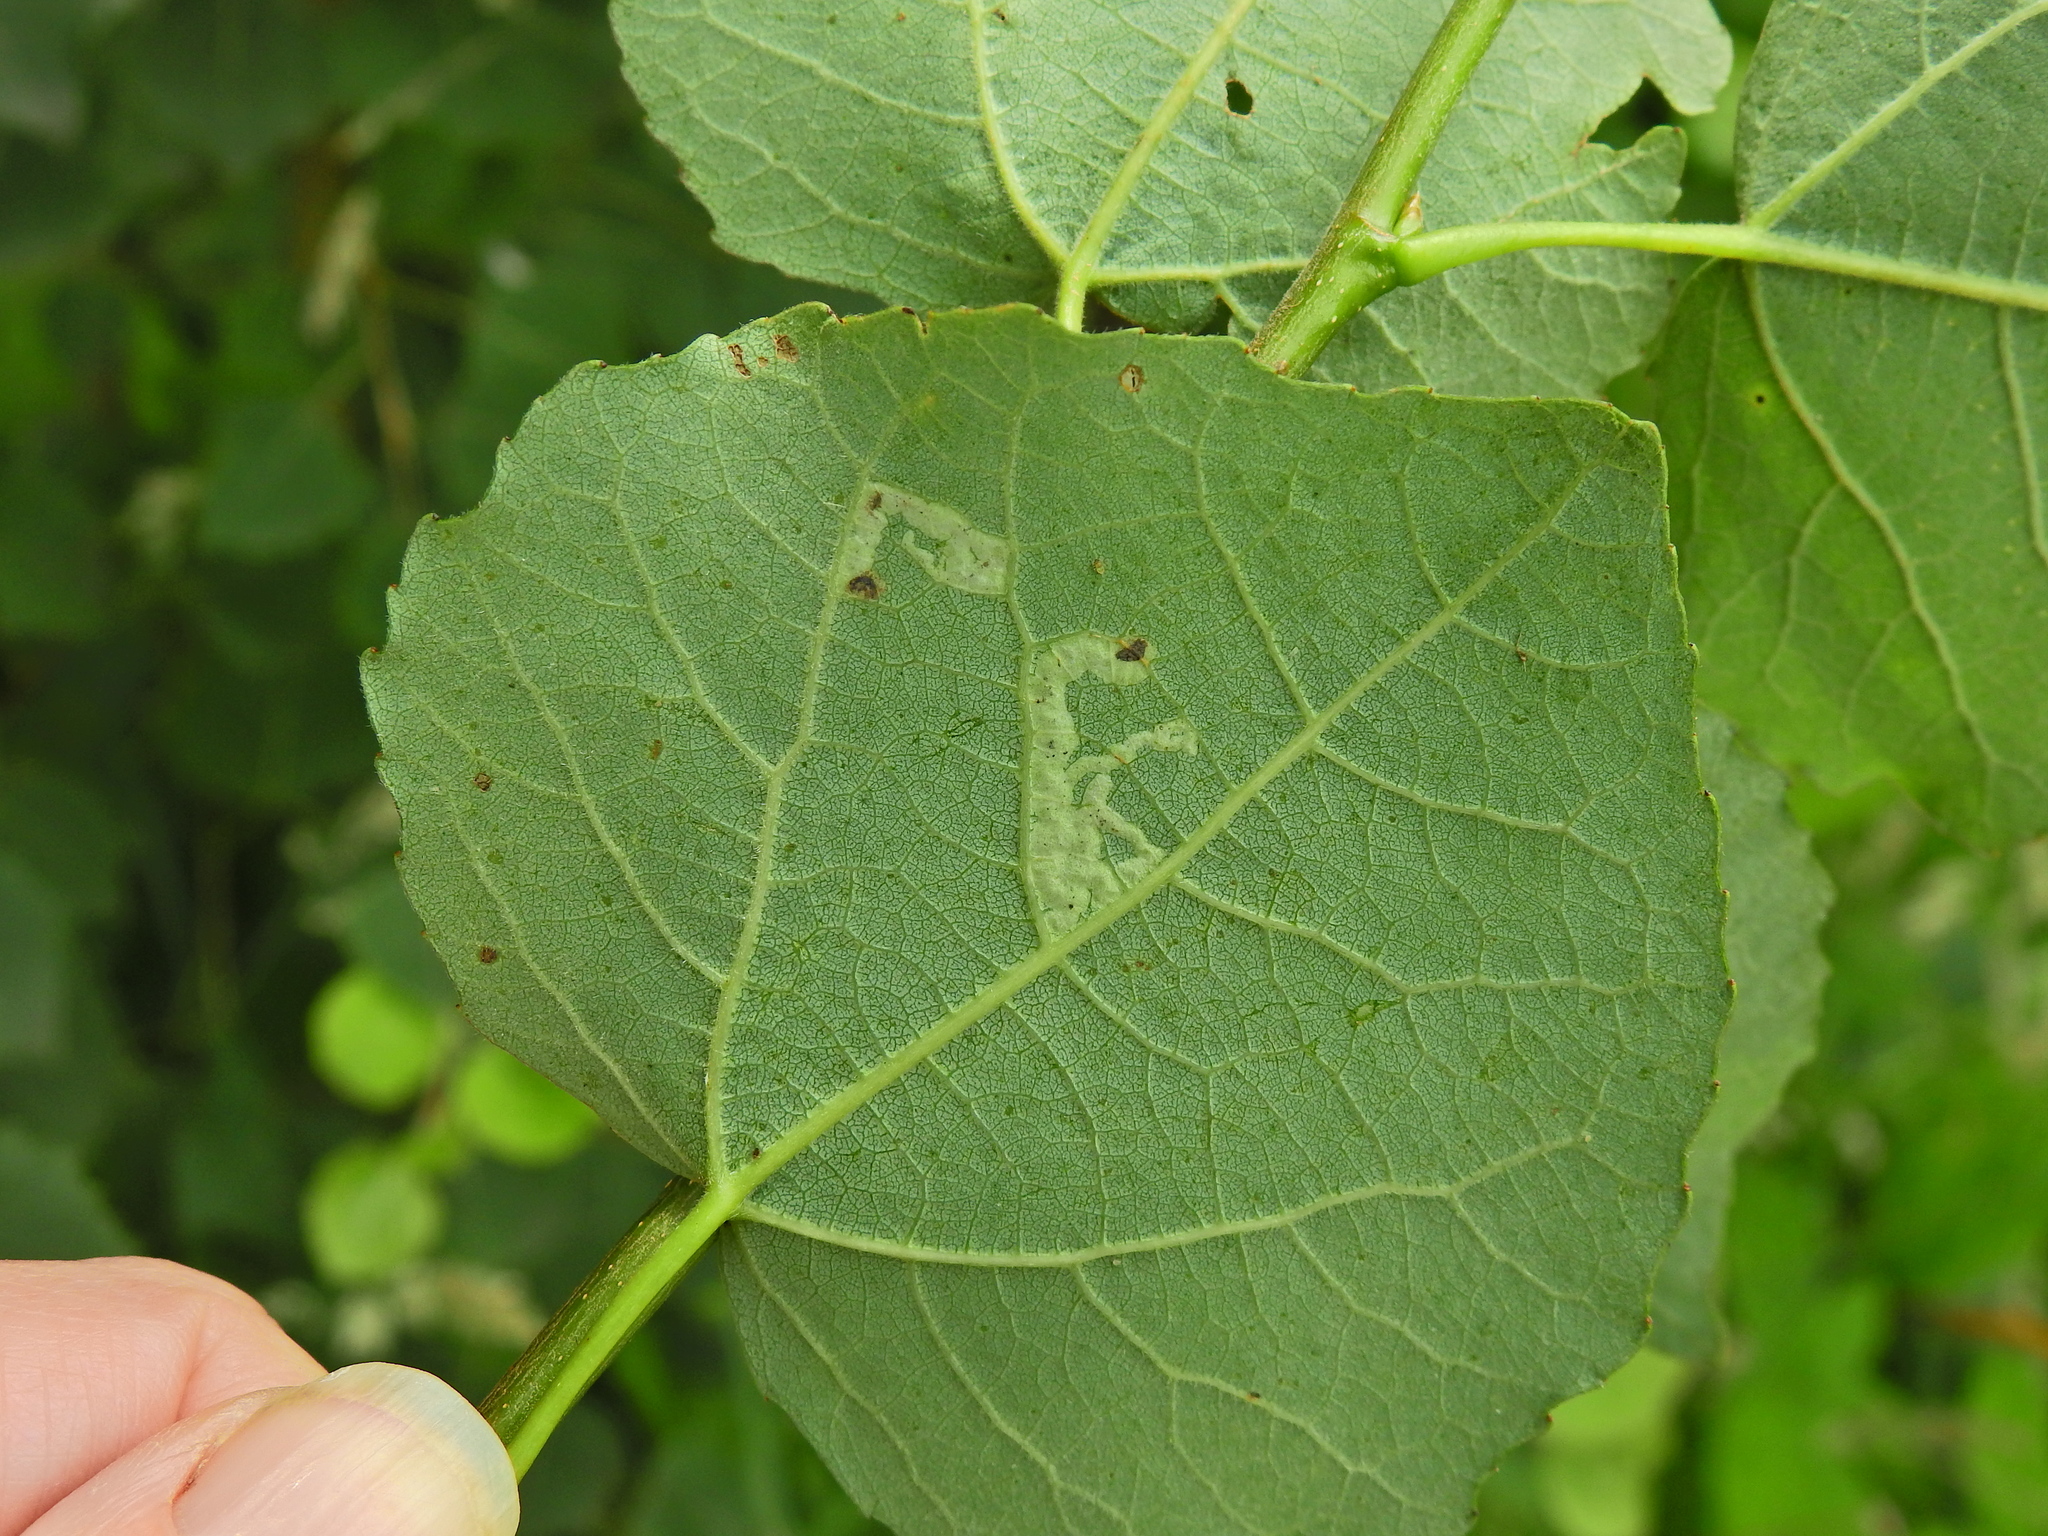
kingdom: Animalia
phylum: Arthropoda
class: Insecta
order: Diptera
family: Agromyzidae
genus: Aulagromyza
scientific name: Aulagromyza tremulae
